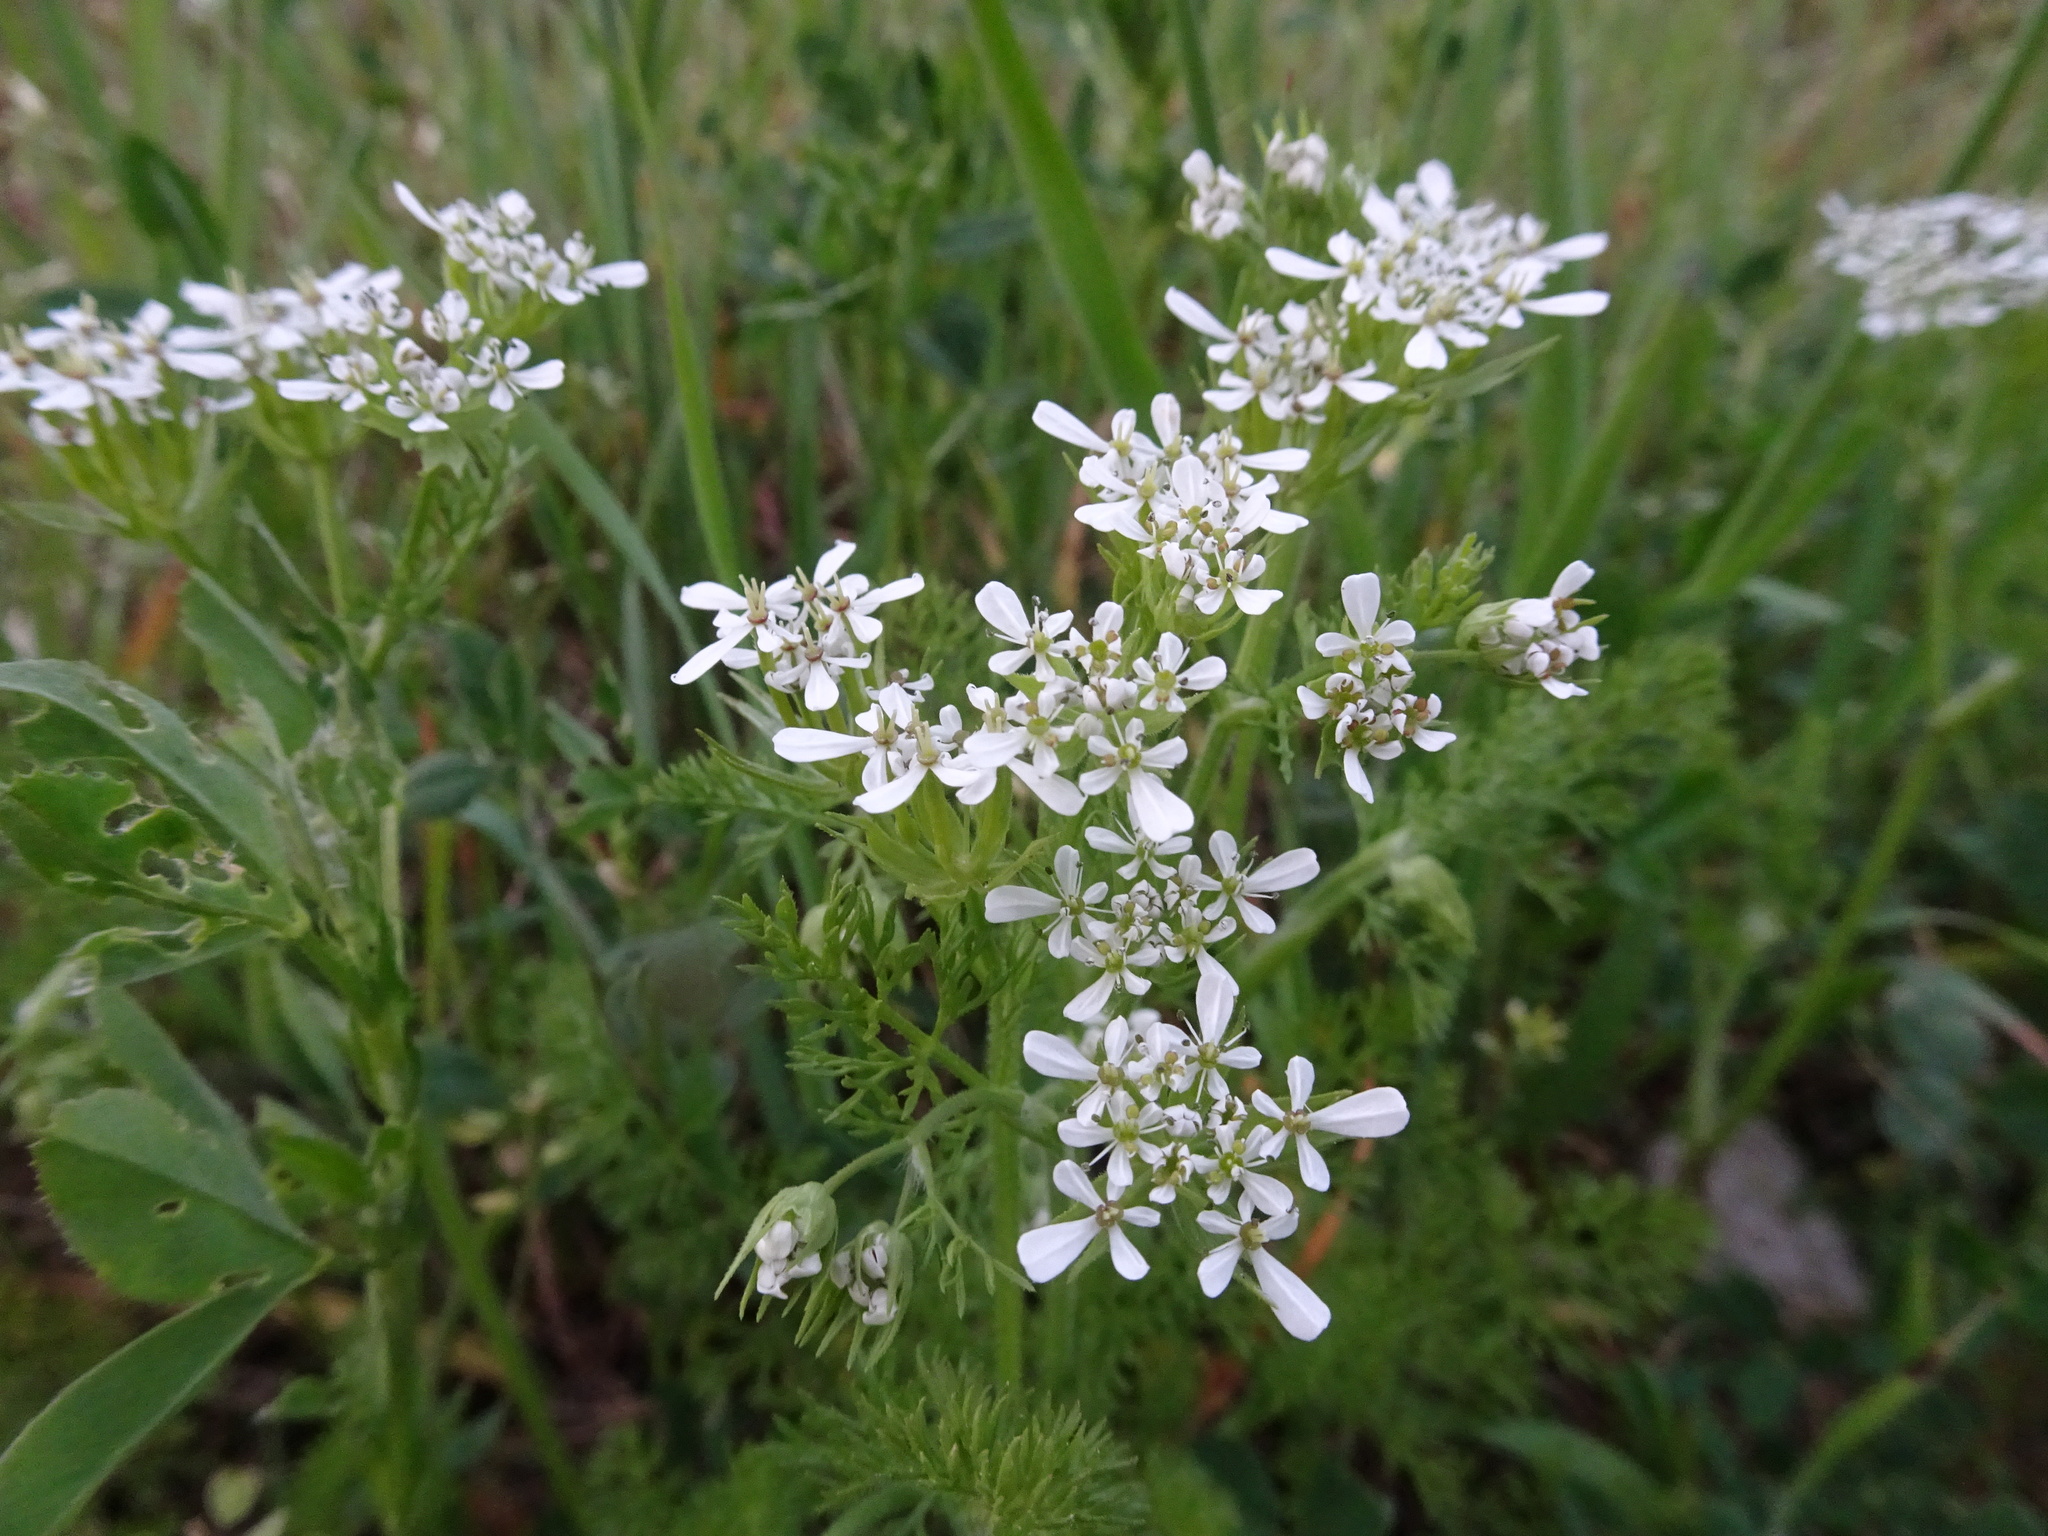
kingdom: Plantae
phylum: Tracheophyta
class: Magnoliopsida
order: Apiales
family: Apiaceae
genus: Scandix
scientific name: Scandix pecten-veneris
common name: Shepherd's-needle
